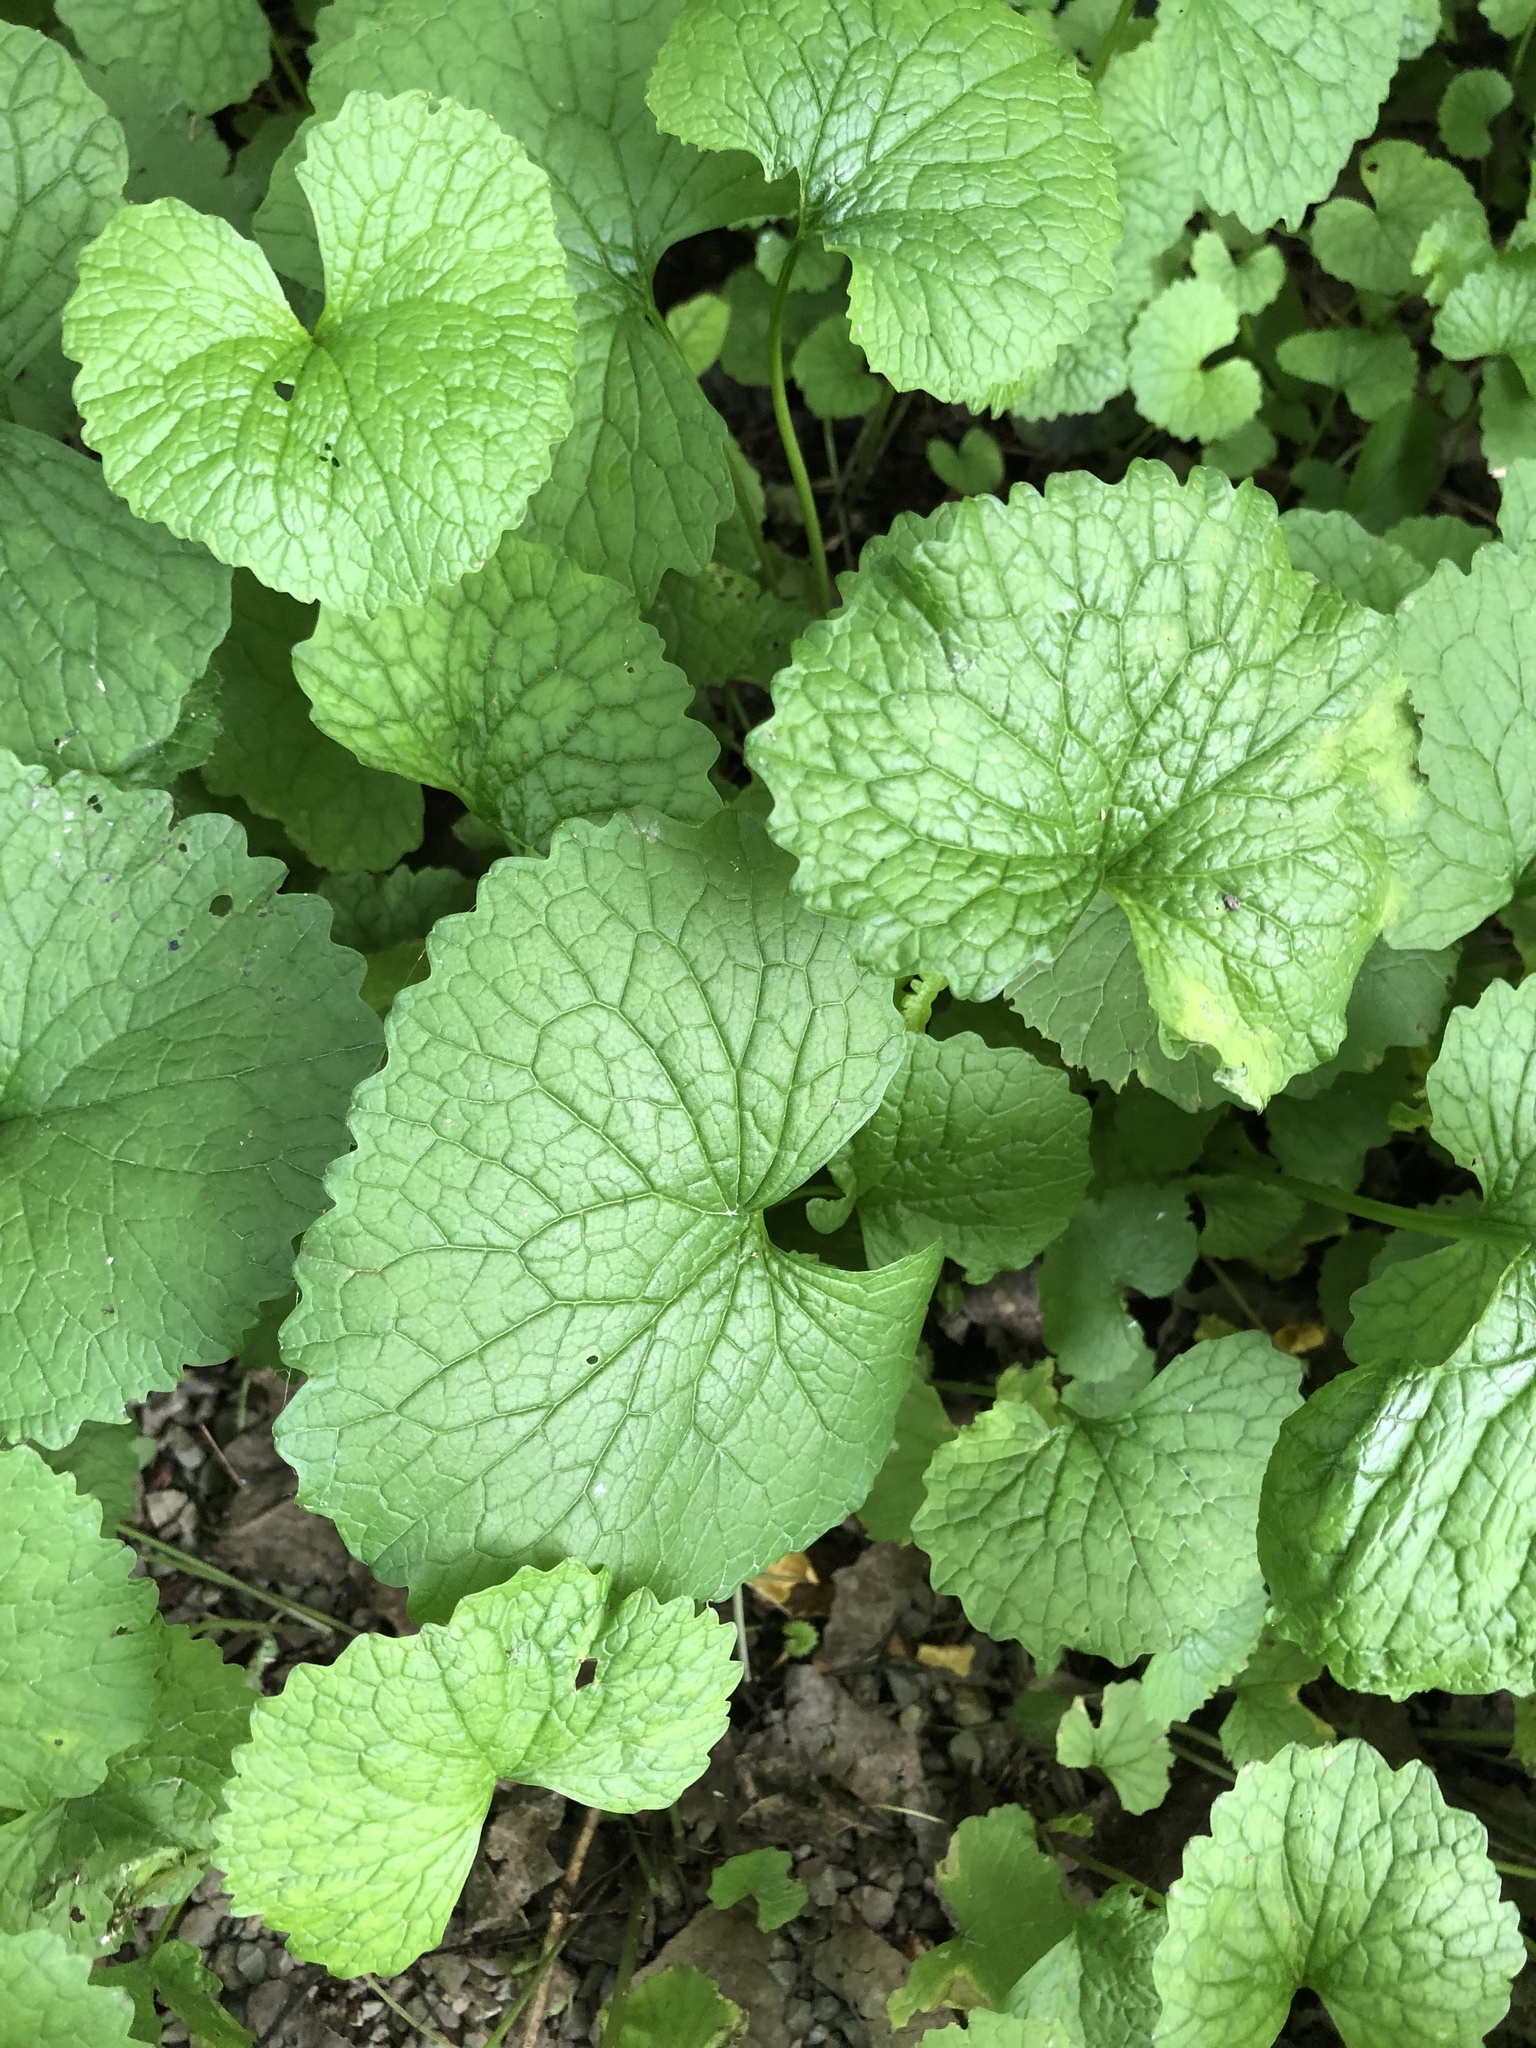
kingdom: Plantae
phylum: Tracheophyta
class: Magnoliopsida
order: Brassicales
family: Brassicaceae
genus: Alliaria
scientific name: Alliaria petiolata
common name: Garlic mustard
